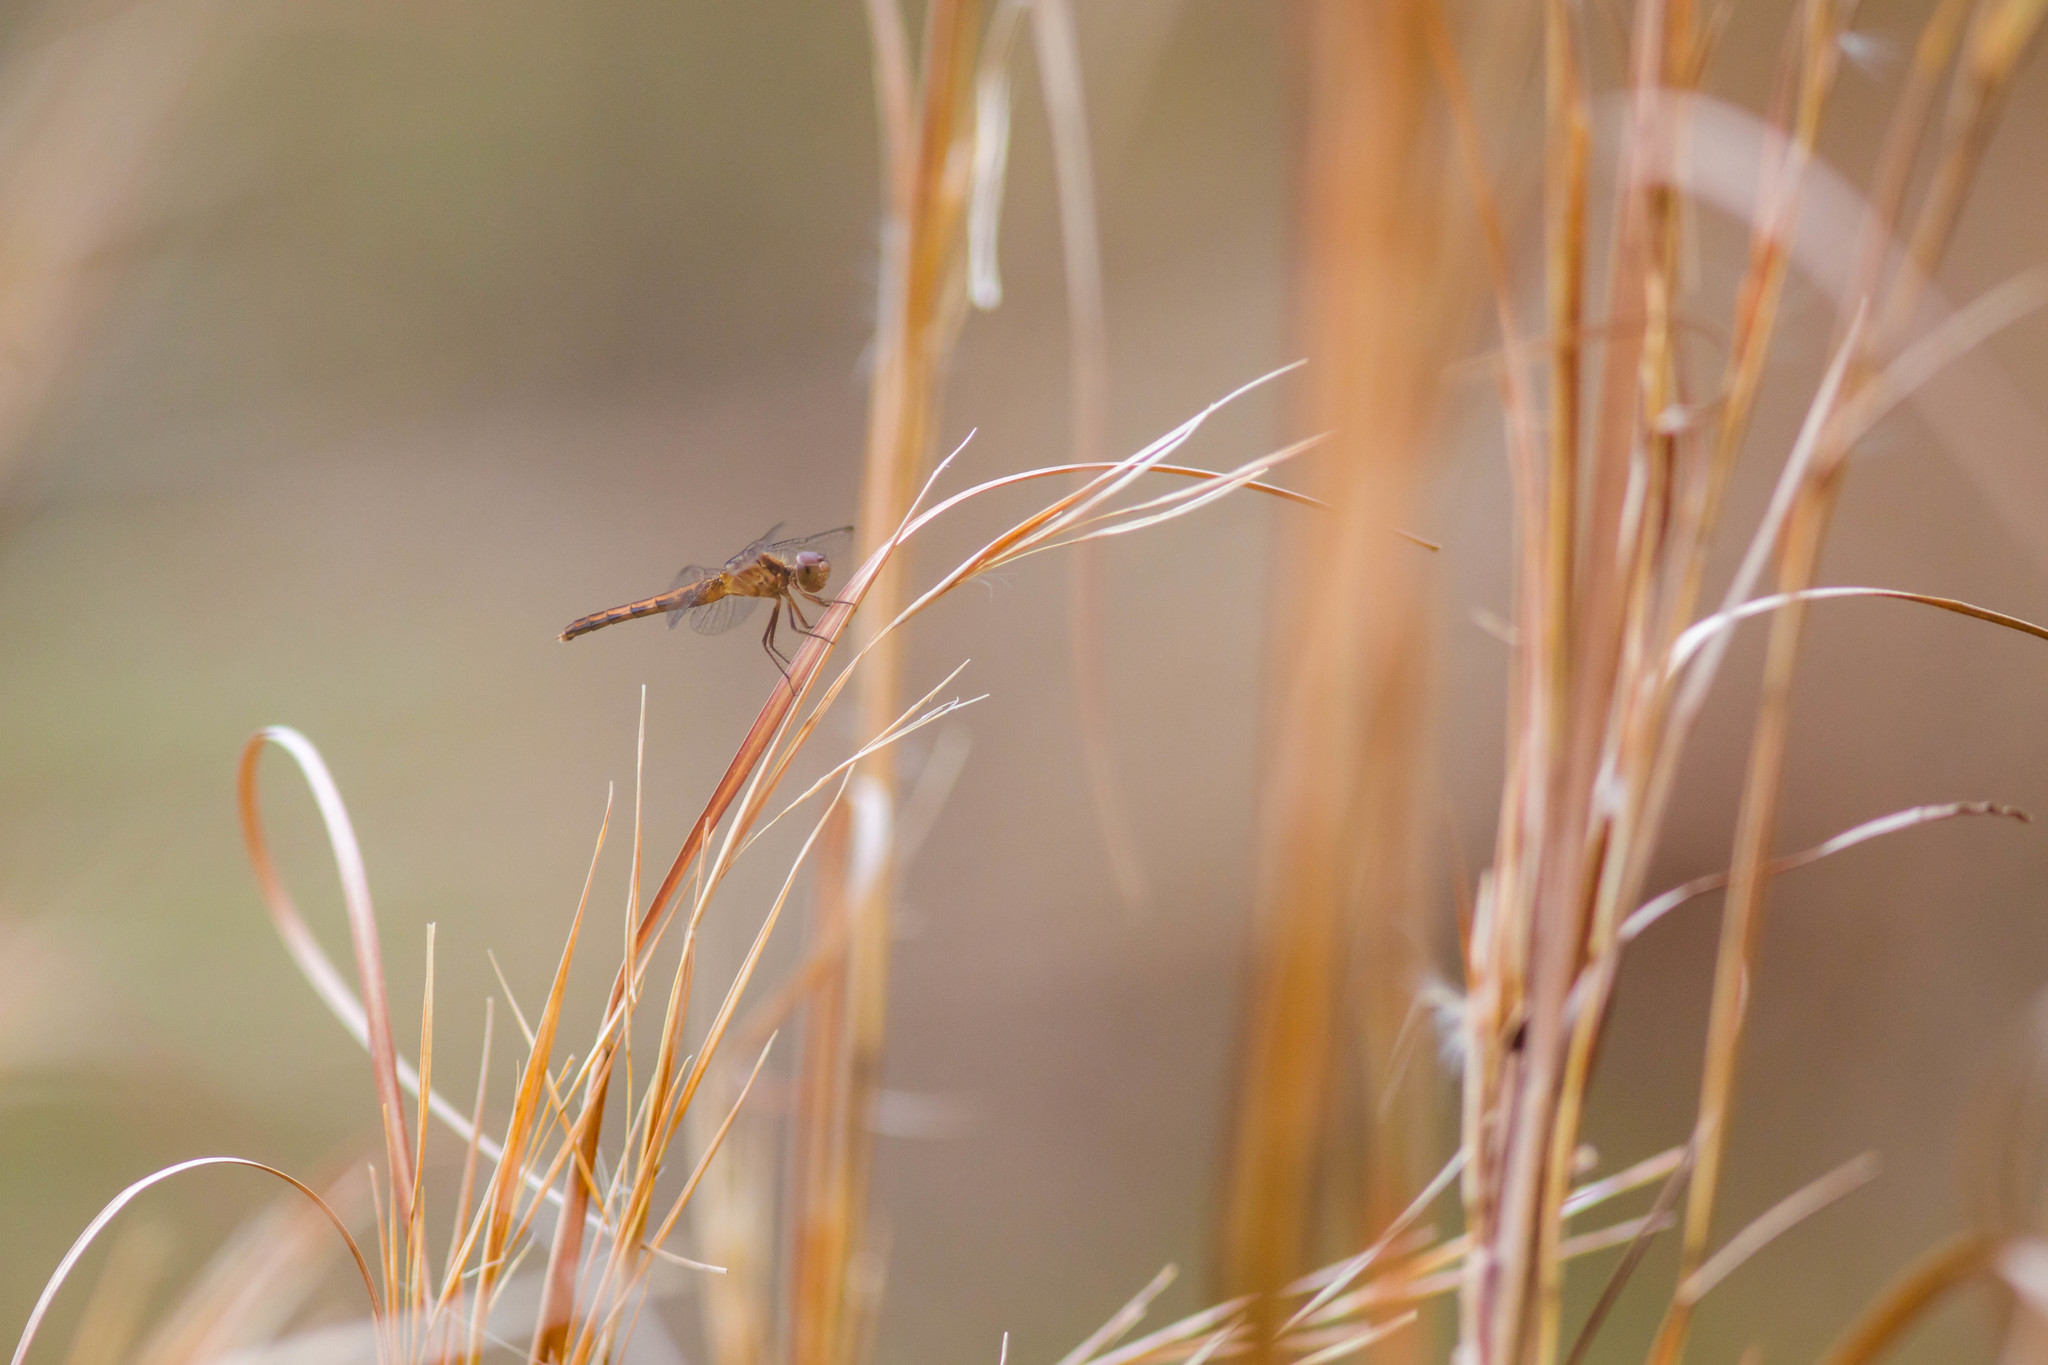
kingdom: Animalia
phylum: Arthropoda
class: Insecta
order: Odonata
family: Libellulidae
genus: Erythrodiplax
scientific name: Erythrodiplax minuscula
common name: Little blue dragonlet
